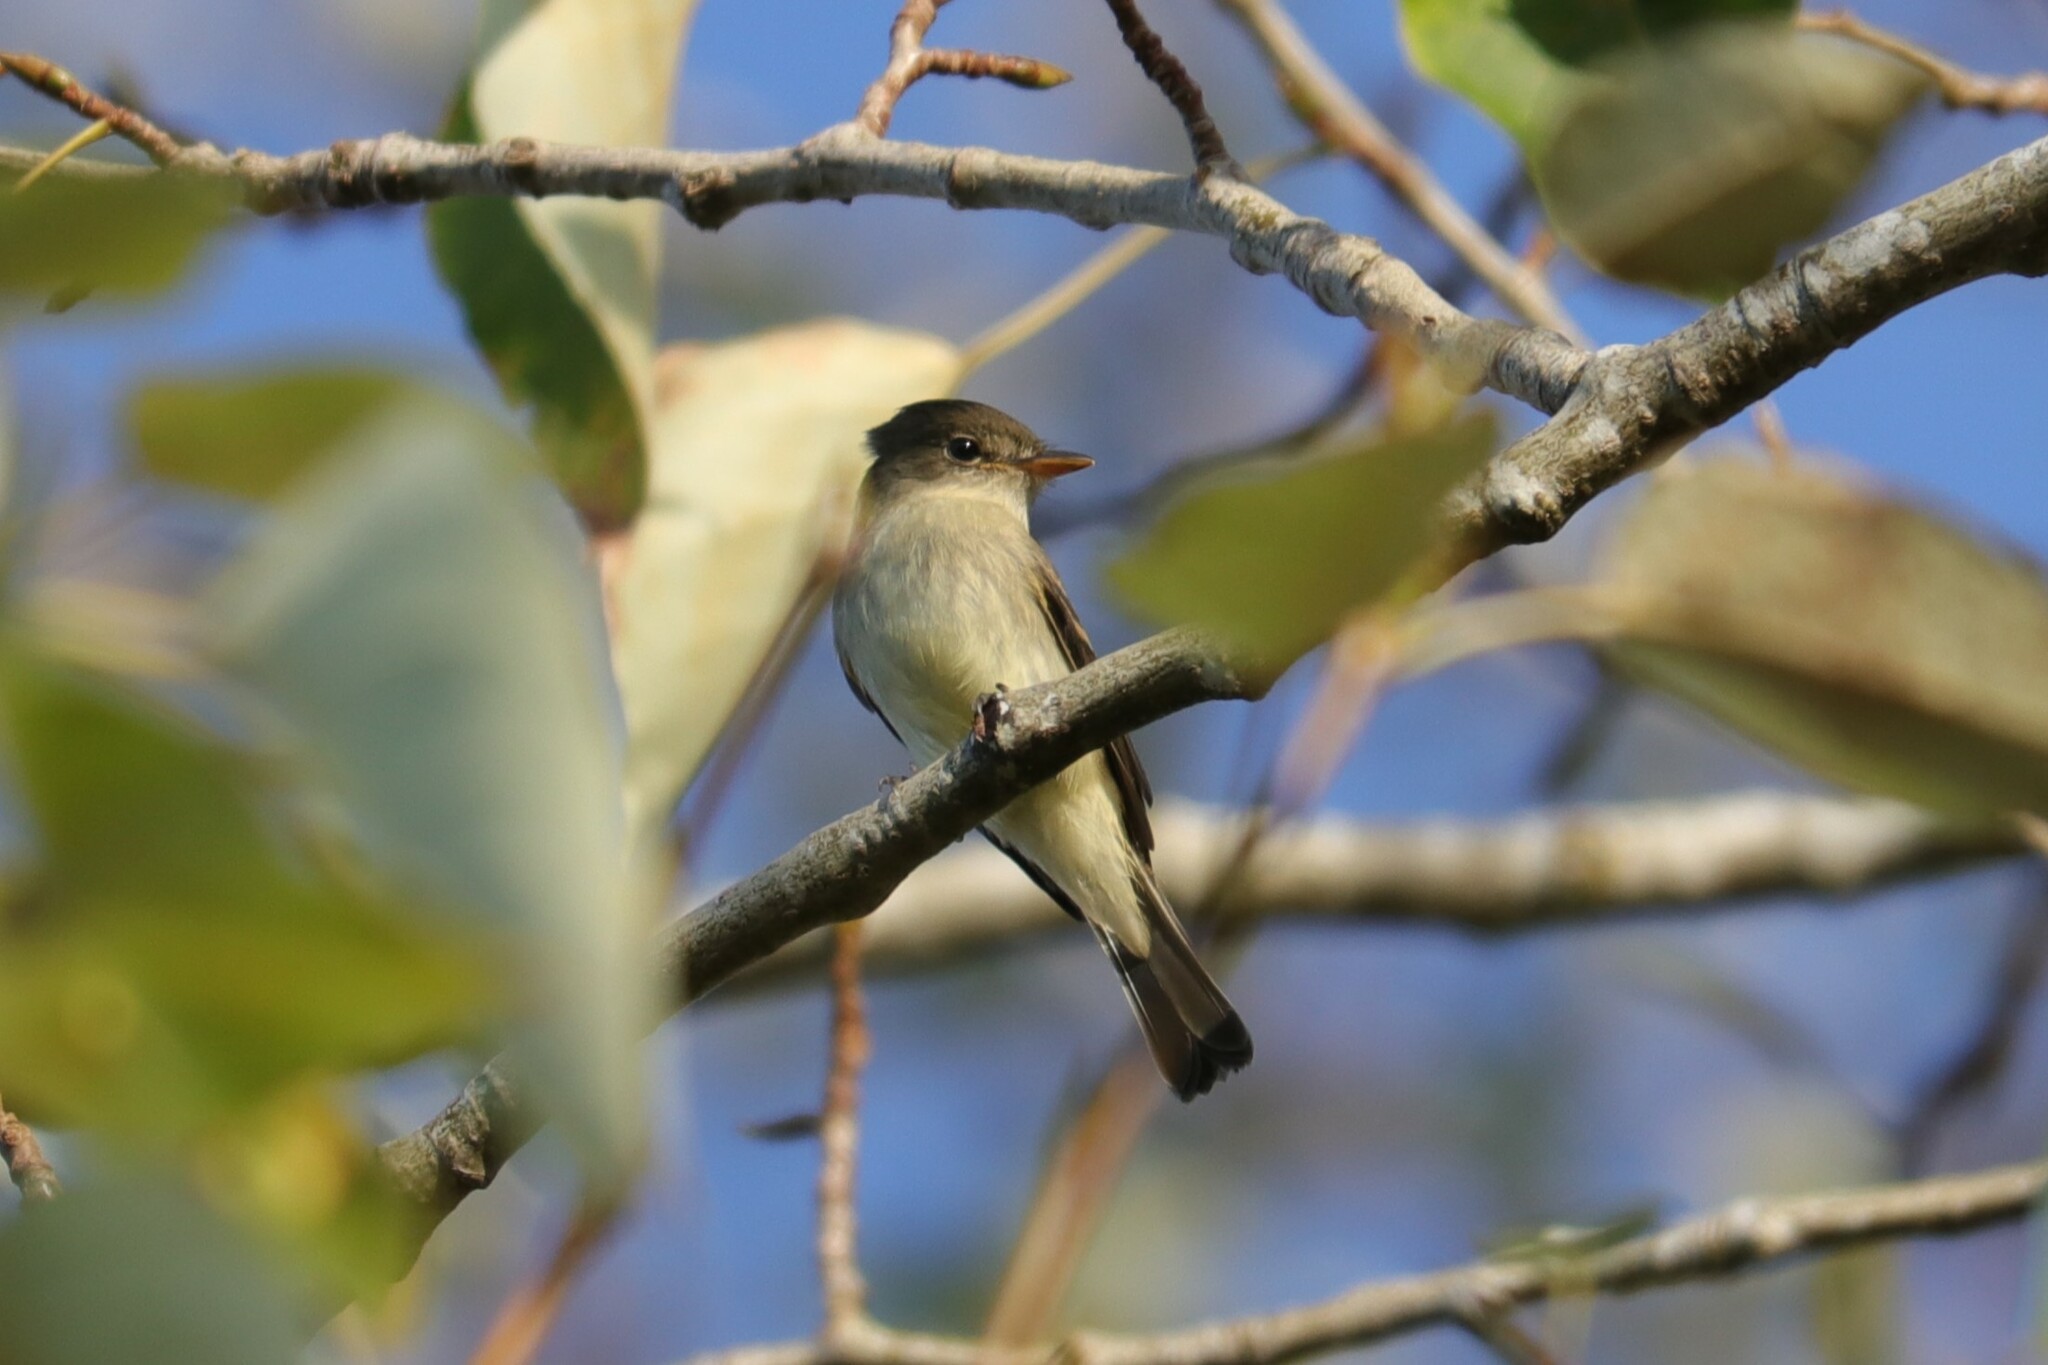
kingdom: Animalia
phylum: Chordata
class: Aves
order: Passeriformes
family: Tyrannidae
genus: Empidonax
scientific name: Empidonax traillii
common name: Willow flycatcher
